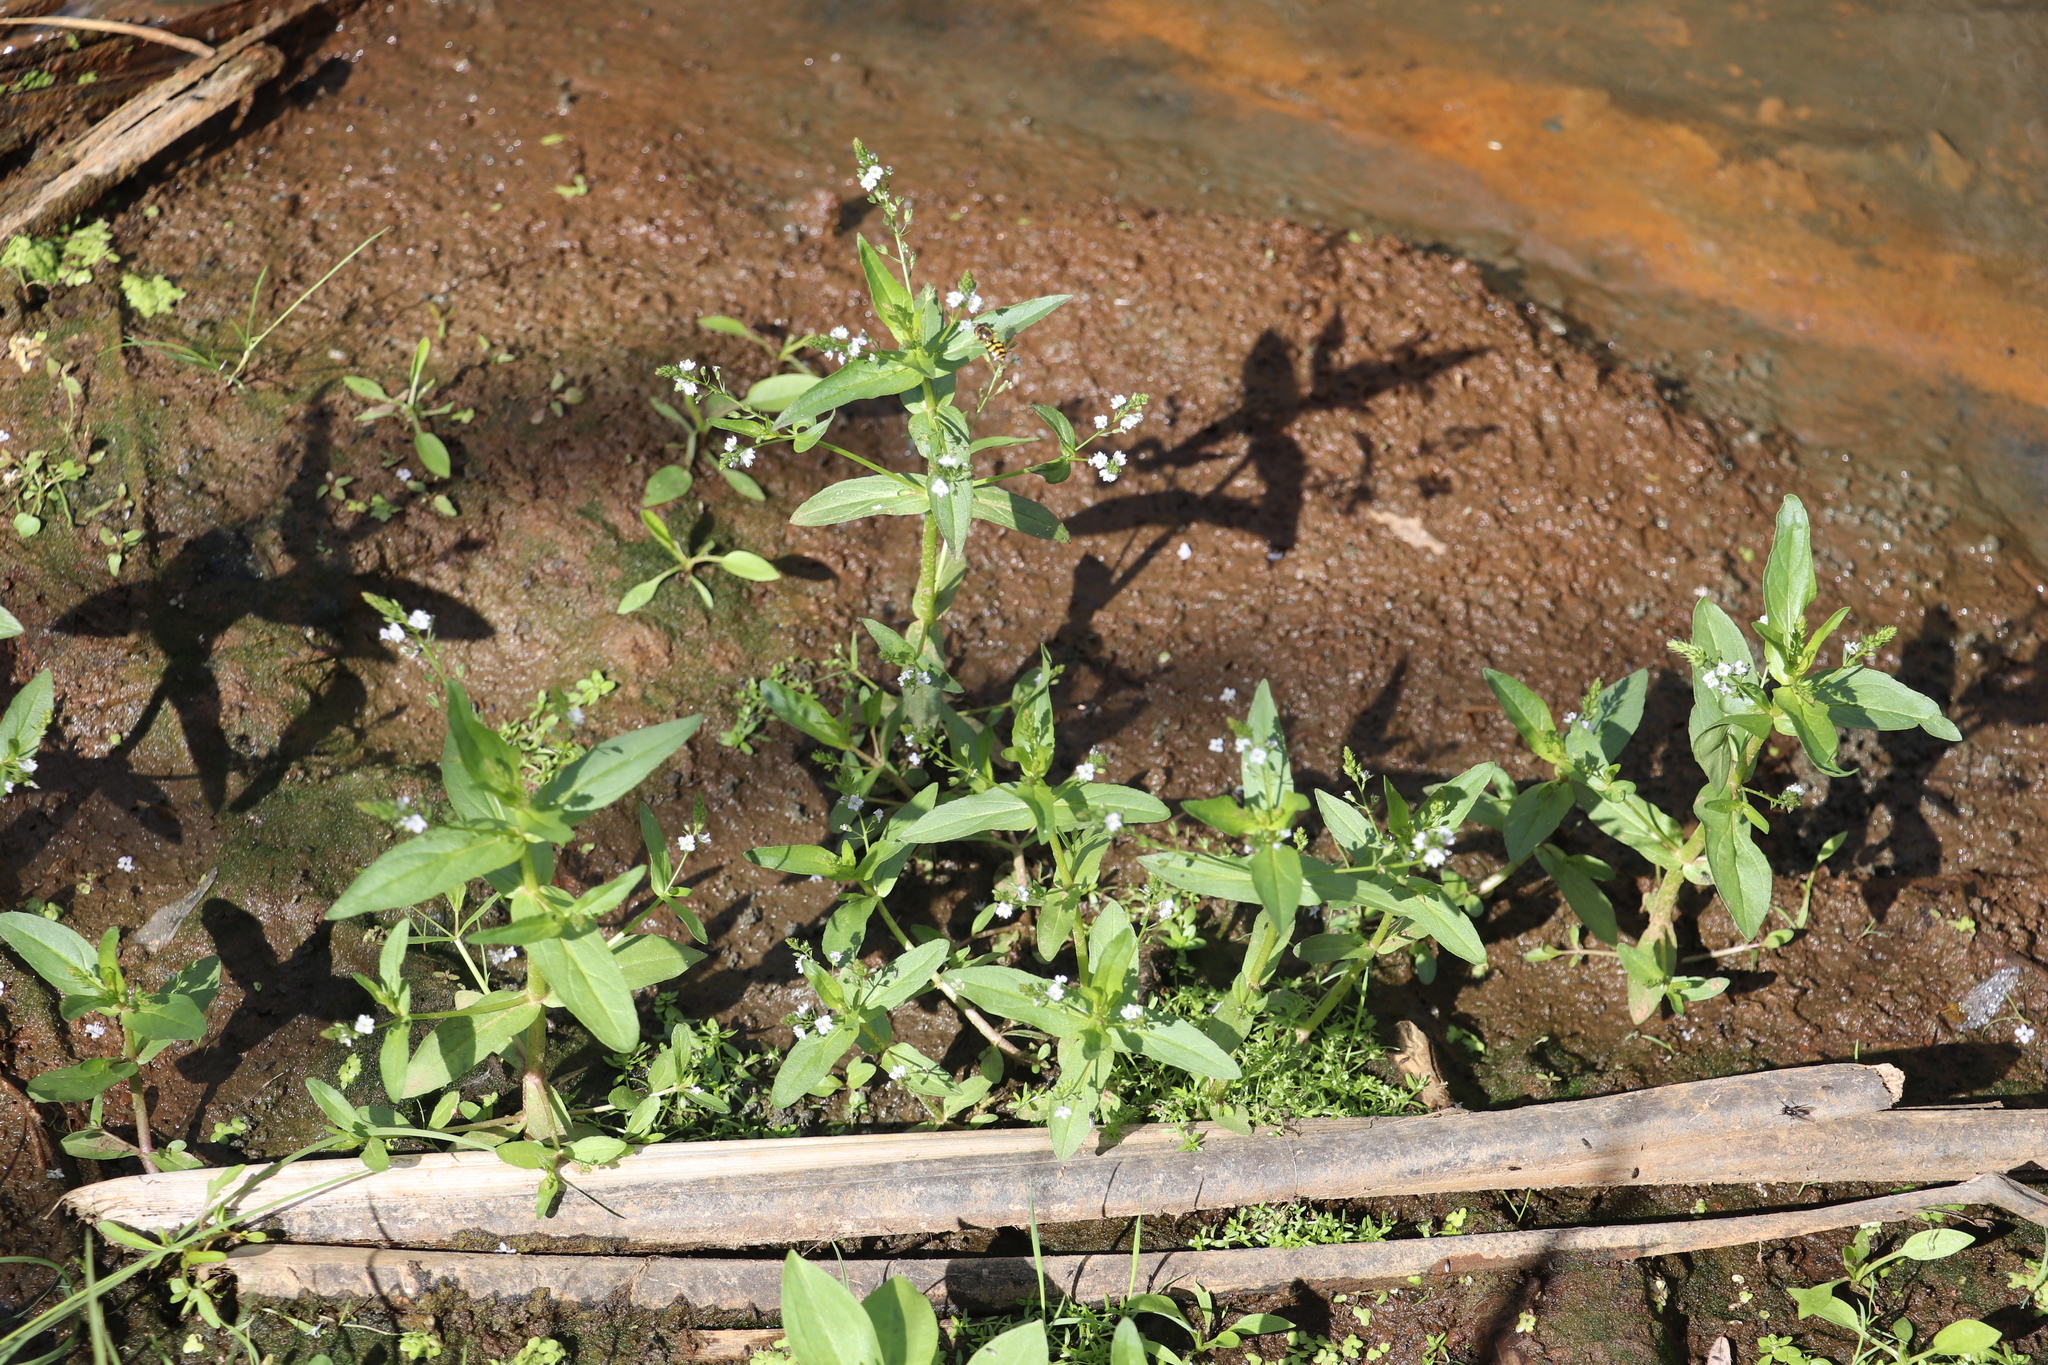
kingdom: Plantae
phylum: Tracheophyta
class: Magnoliopsida
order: Lamiales
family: Plantaginaceae
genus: Veronica
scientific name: Veronica anagallis-aquatica
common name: Water speedwell
